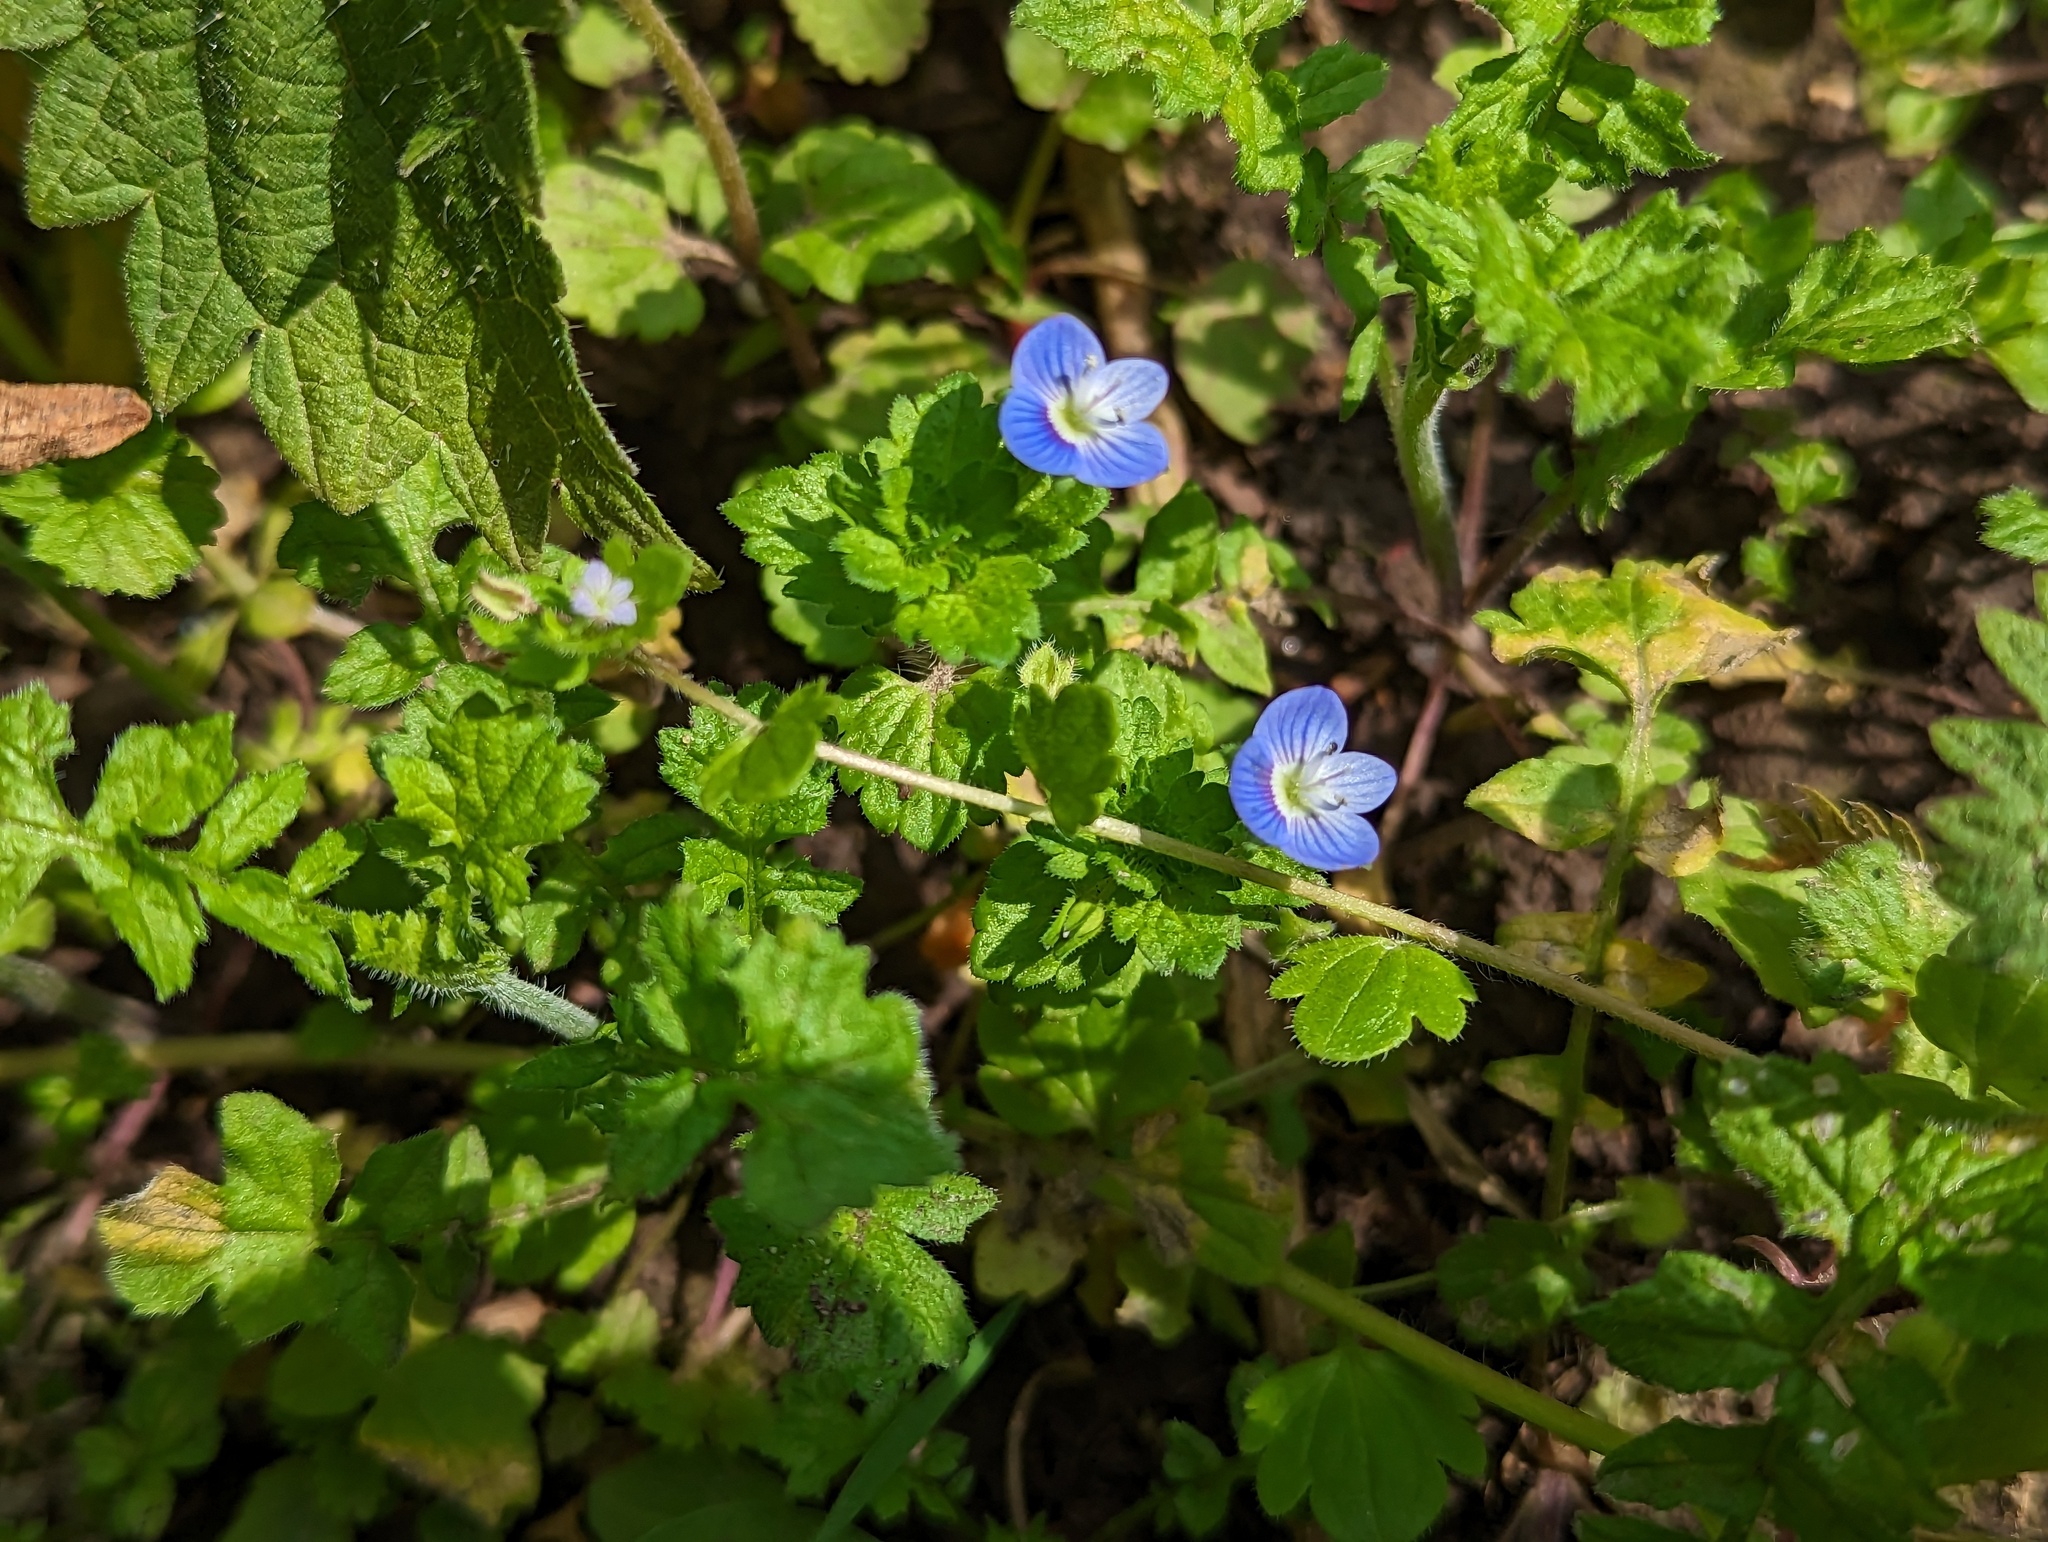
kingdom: Plantae
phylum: Tracheophyta
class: Magnoliopsida
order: Lamiales
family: Plantaginaceae
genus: Veronica
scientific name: Veronica persica
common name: Common field-speedwell
